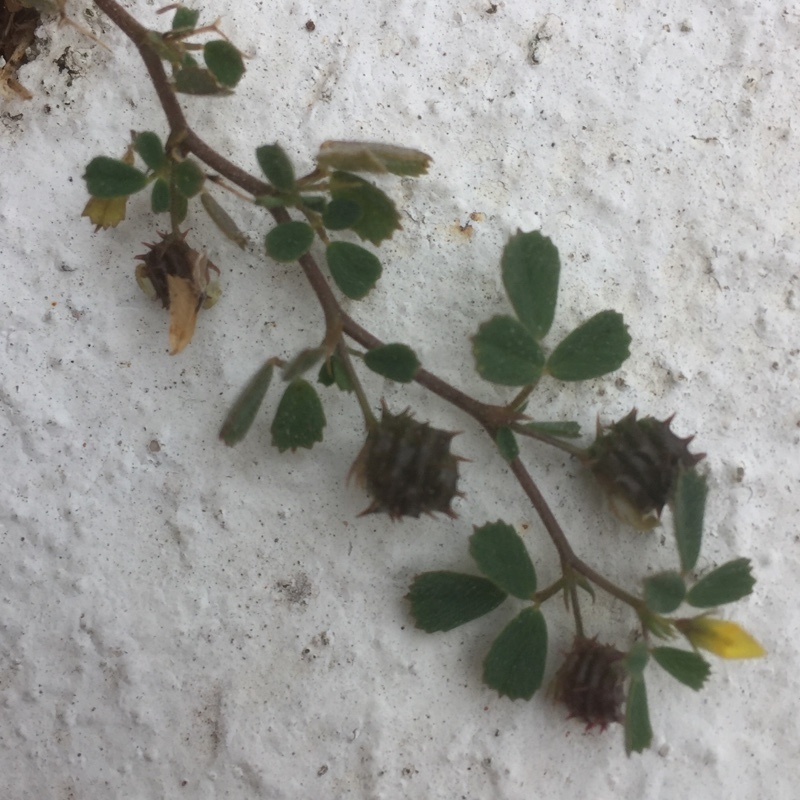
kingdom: Plantae
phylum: Tracheophyta
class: Magnoliopsida
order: Fabales
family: Fabaceae
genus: Medicago
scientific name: Medicago truncatula
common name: Strong-spined medick
